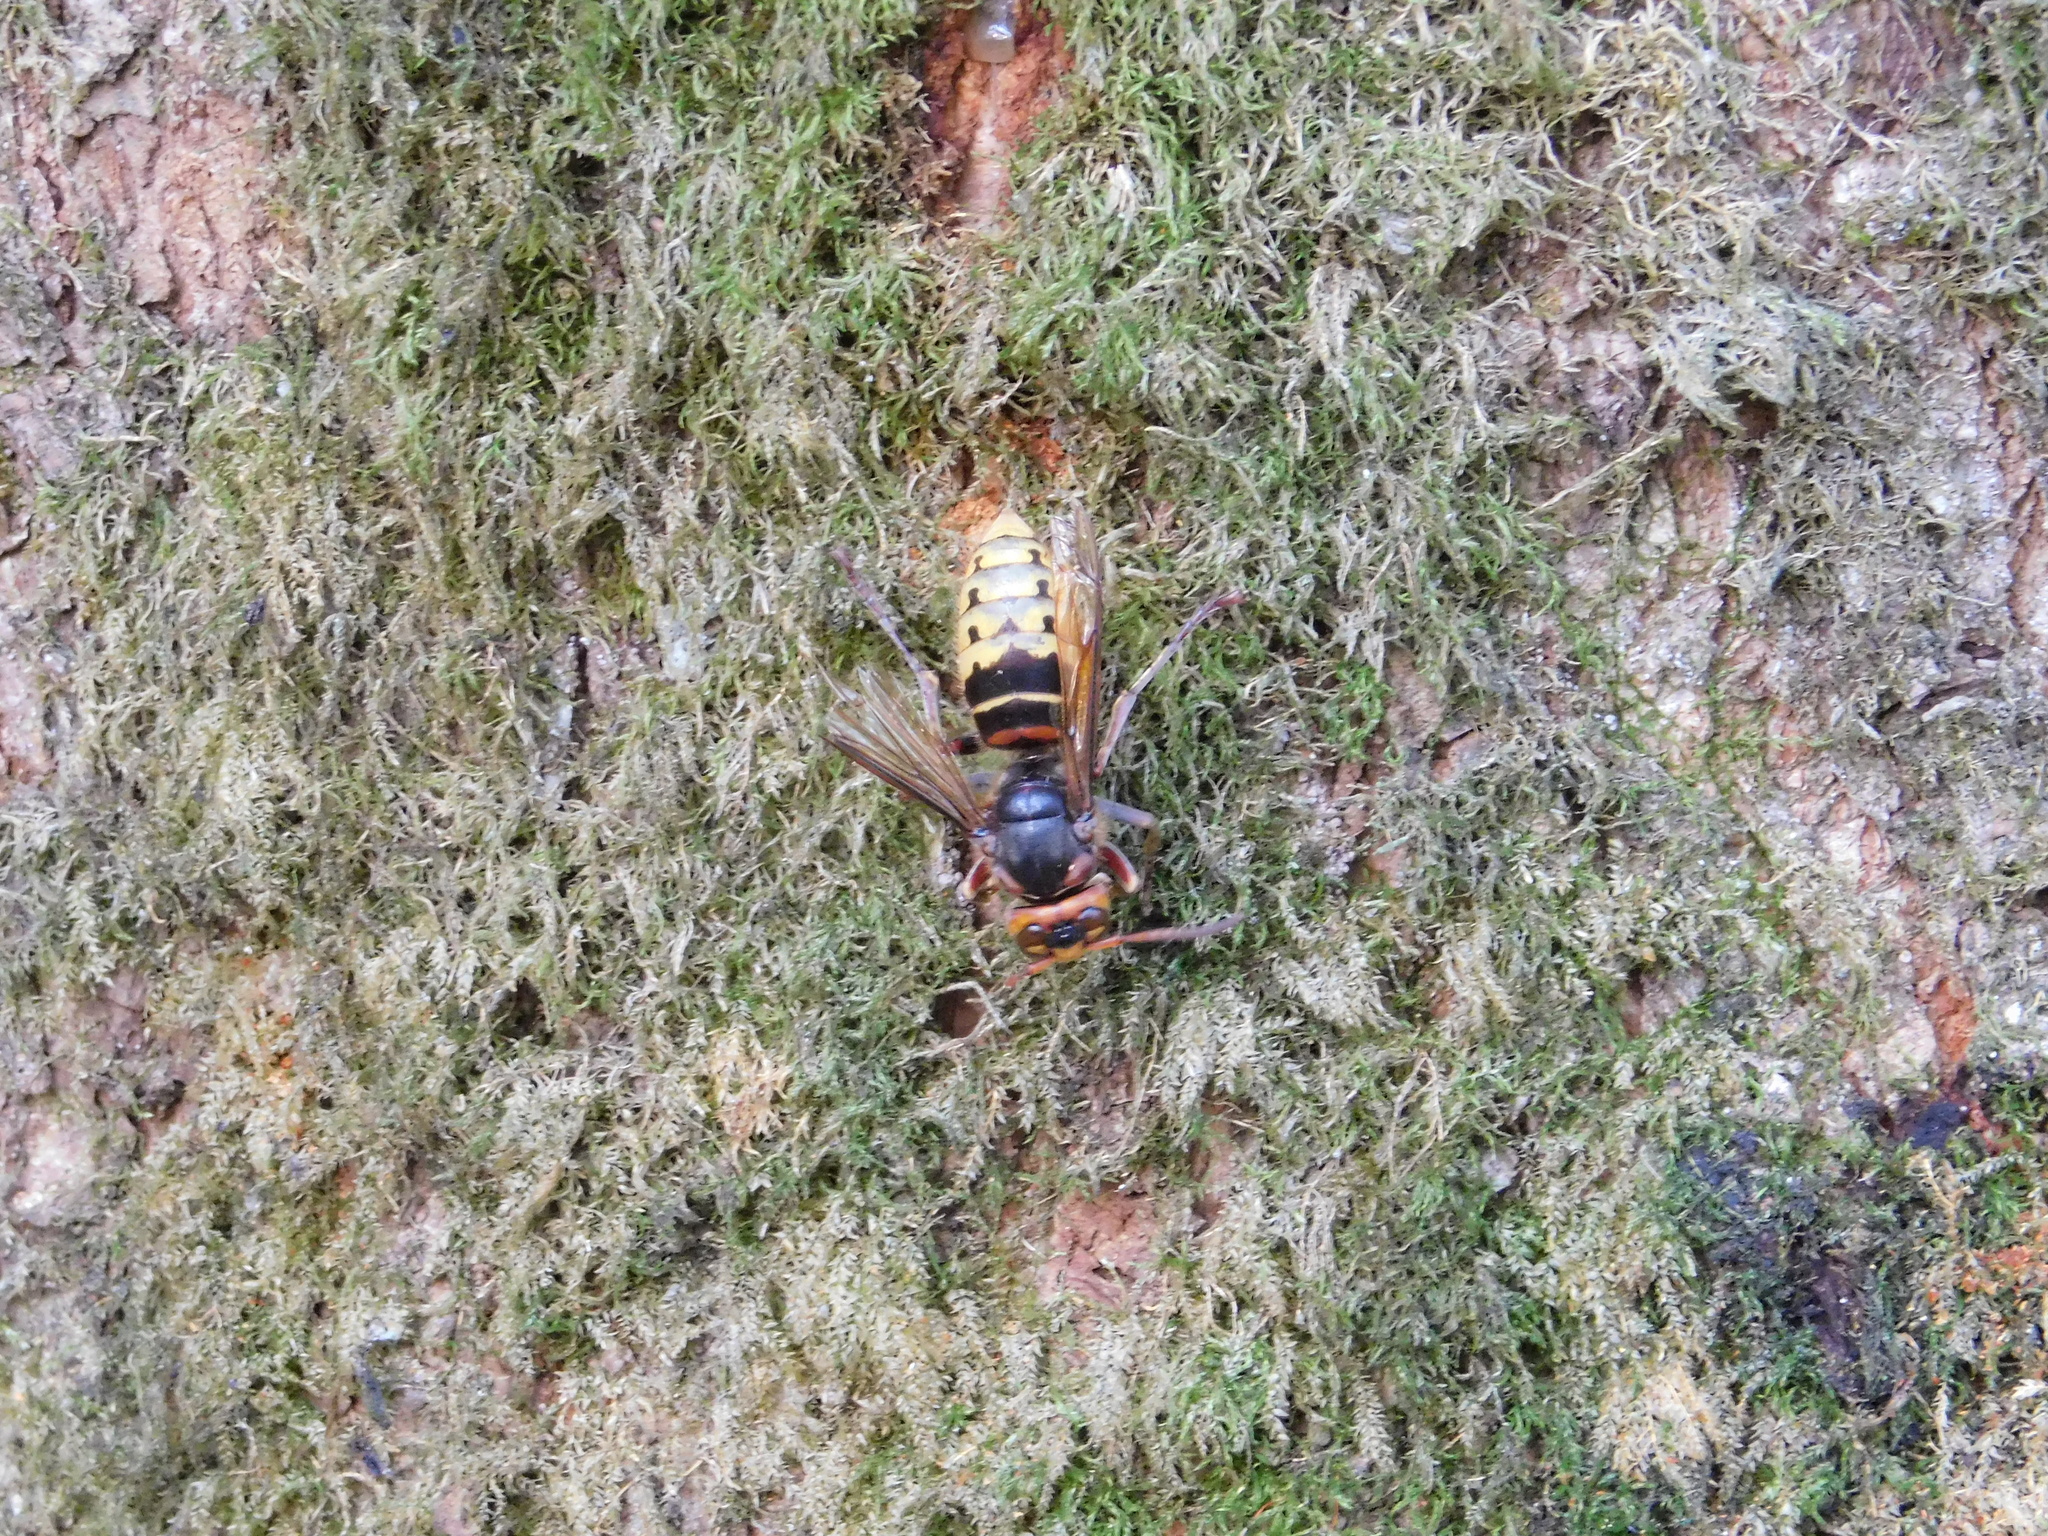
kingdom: Animalia
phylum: Arthropoda
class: Insecta
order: Hymenoptera
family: Vespidae
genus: Vespa
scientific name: Vespa crabro
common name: Hornet
